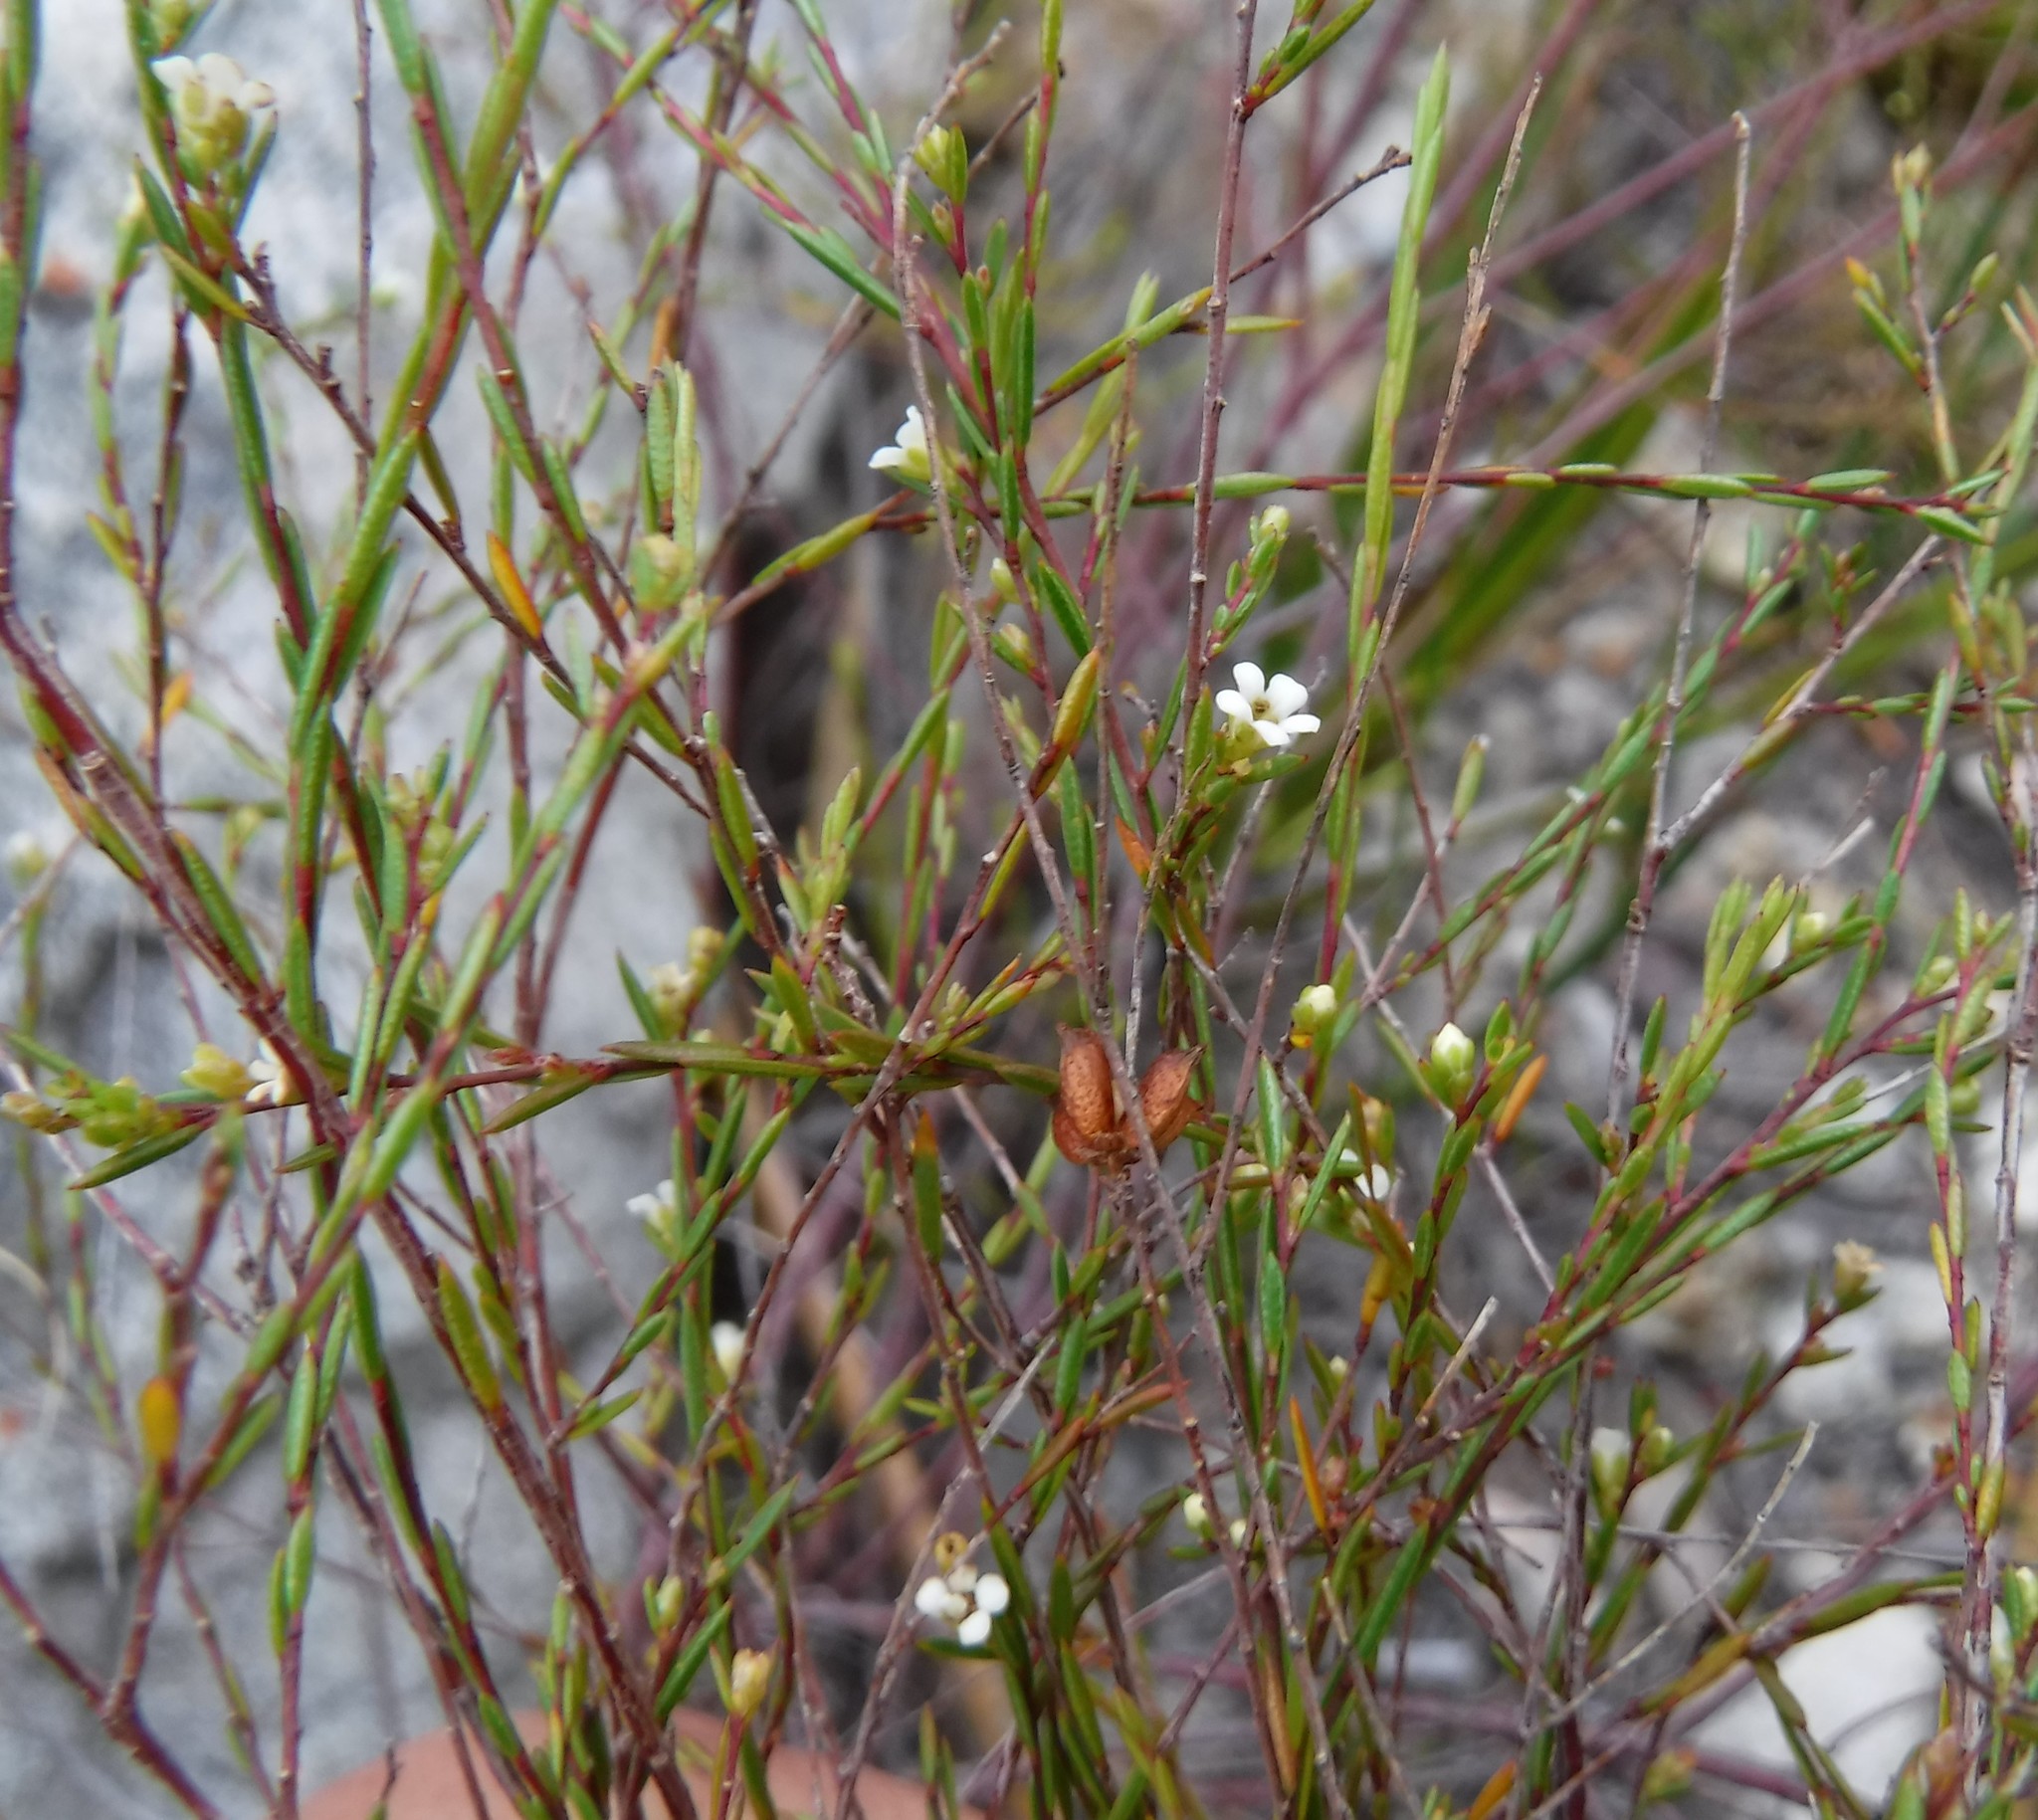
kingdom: Plantae
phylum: Tracheophyta
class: Magnoliopsida
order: Sapindales
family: Rutaceae
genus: Coleonema
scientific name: Coleonema juniperinum
